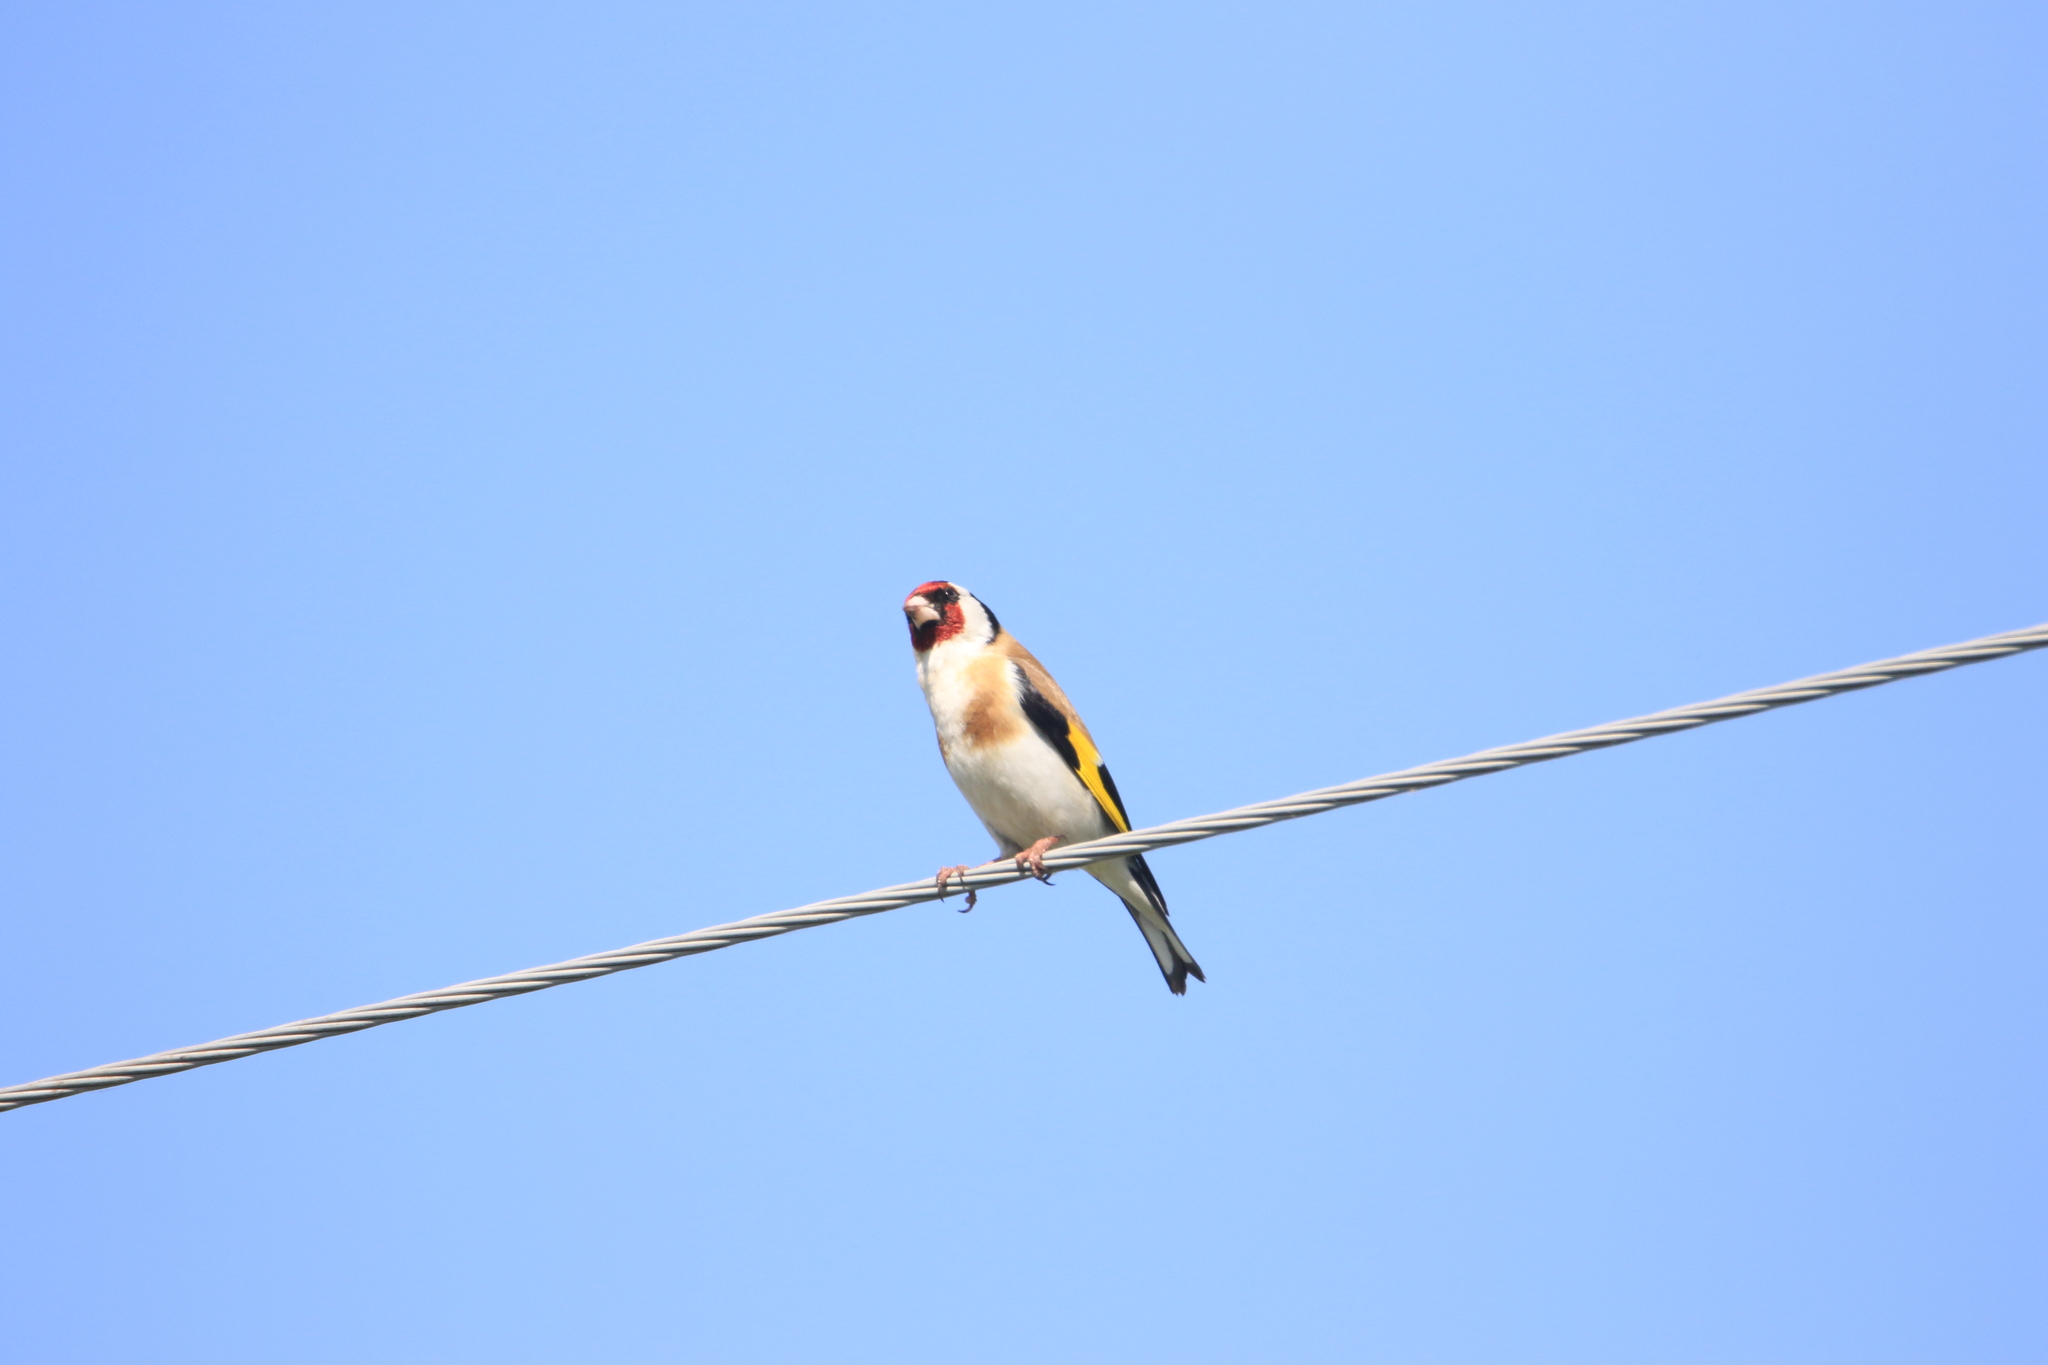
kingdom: Animalia
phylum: Chordata
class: Aves
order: Passeriformes
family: Fringillidae
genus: Carduelis
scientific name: Carduelis carduelis
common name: European goldfinch
